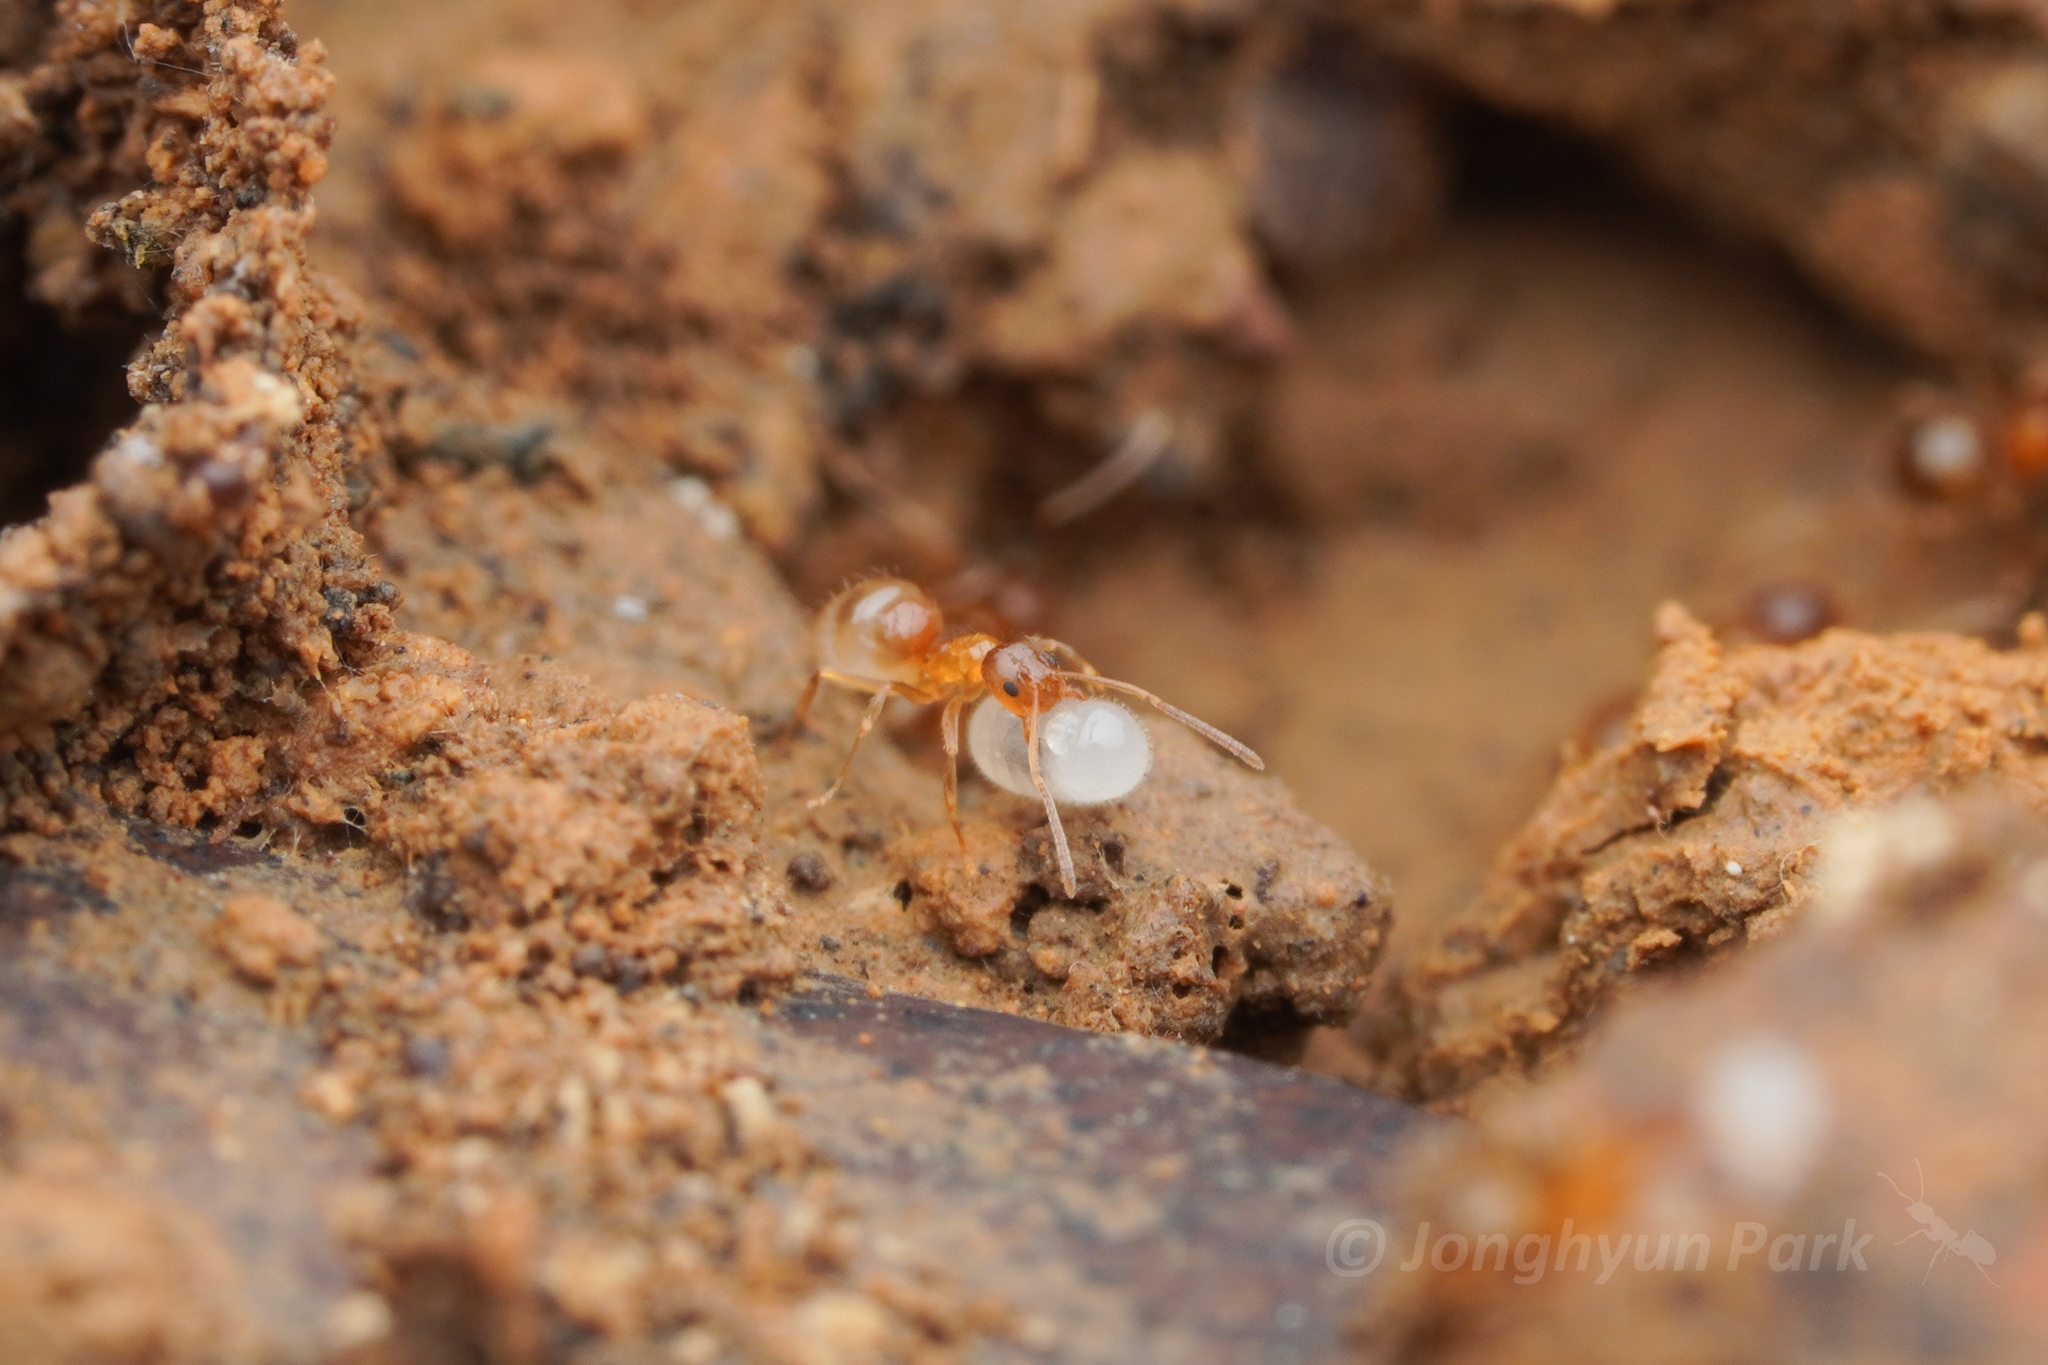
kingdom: Animalia
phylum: Arthropoda
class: Insecta
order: Hymenoptera
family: Formicidae
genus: Paratrechina
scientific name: Paratrechina flavipes
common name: Eastern asian formicine ant
